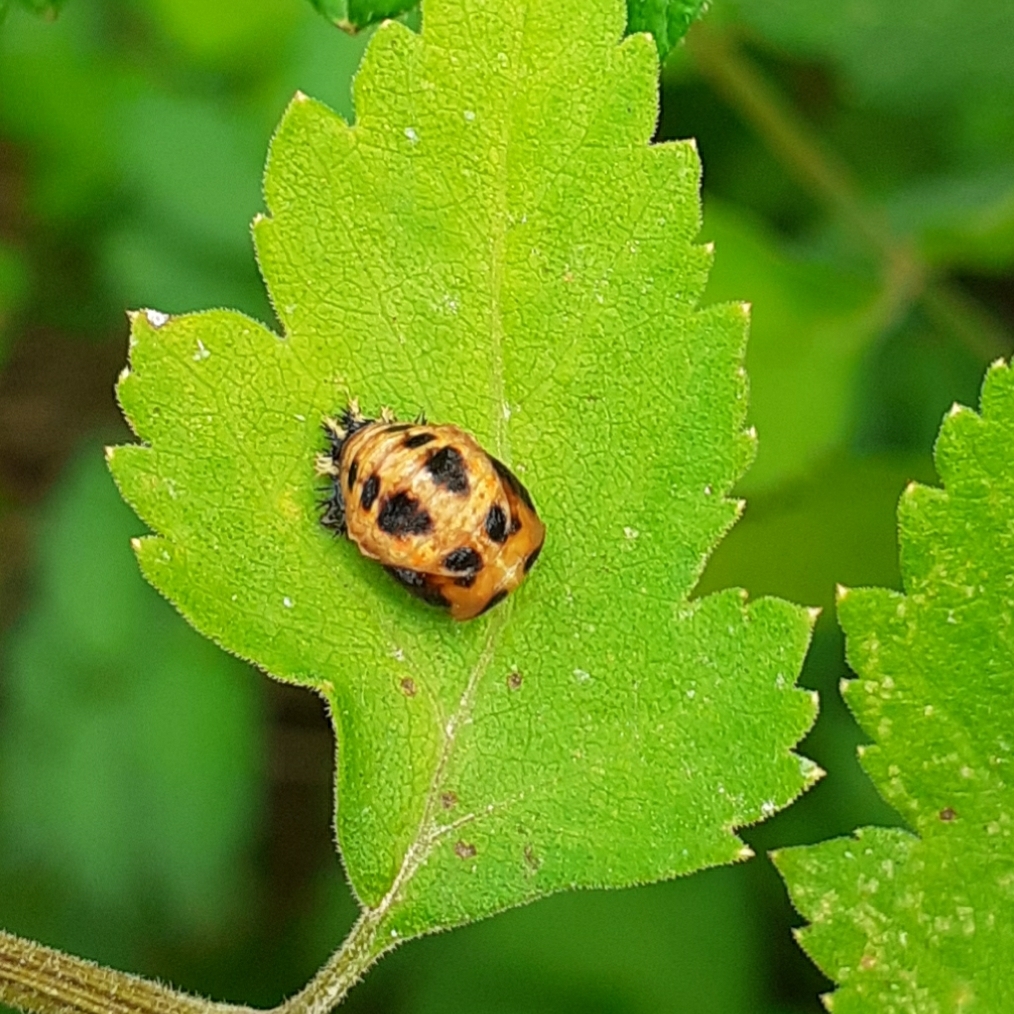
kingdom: Animalia
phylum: Arthropoda
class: Insecta
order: Coleoptera
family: Coccinellidae
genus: Harmonia
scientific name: Harmonia axyridis
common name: Harlequin ladybird
